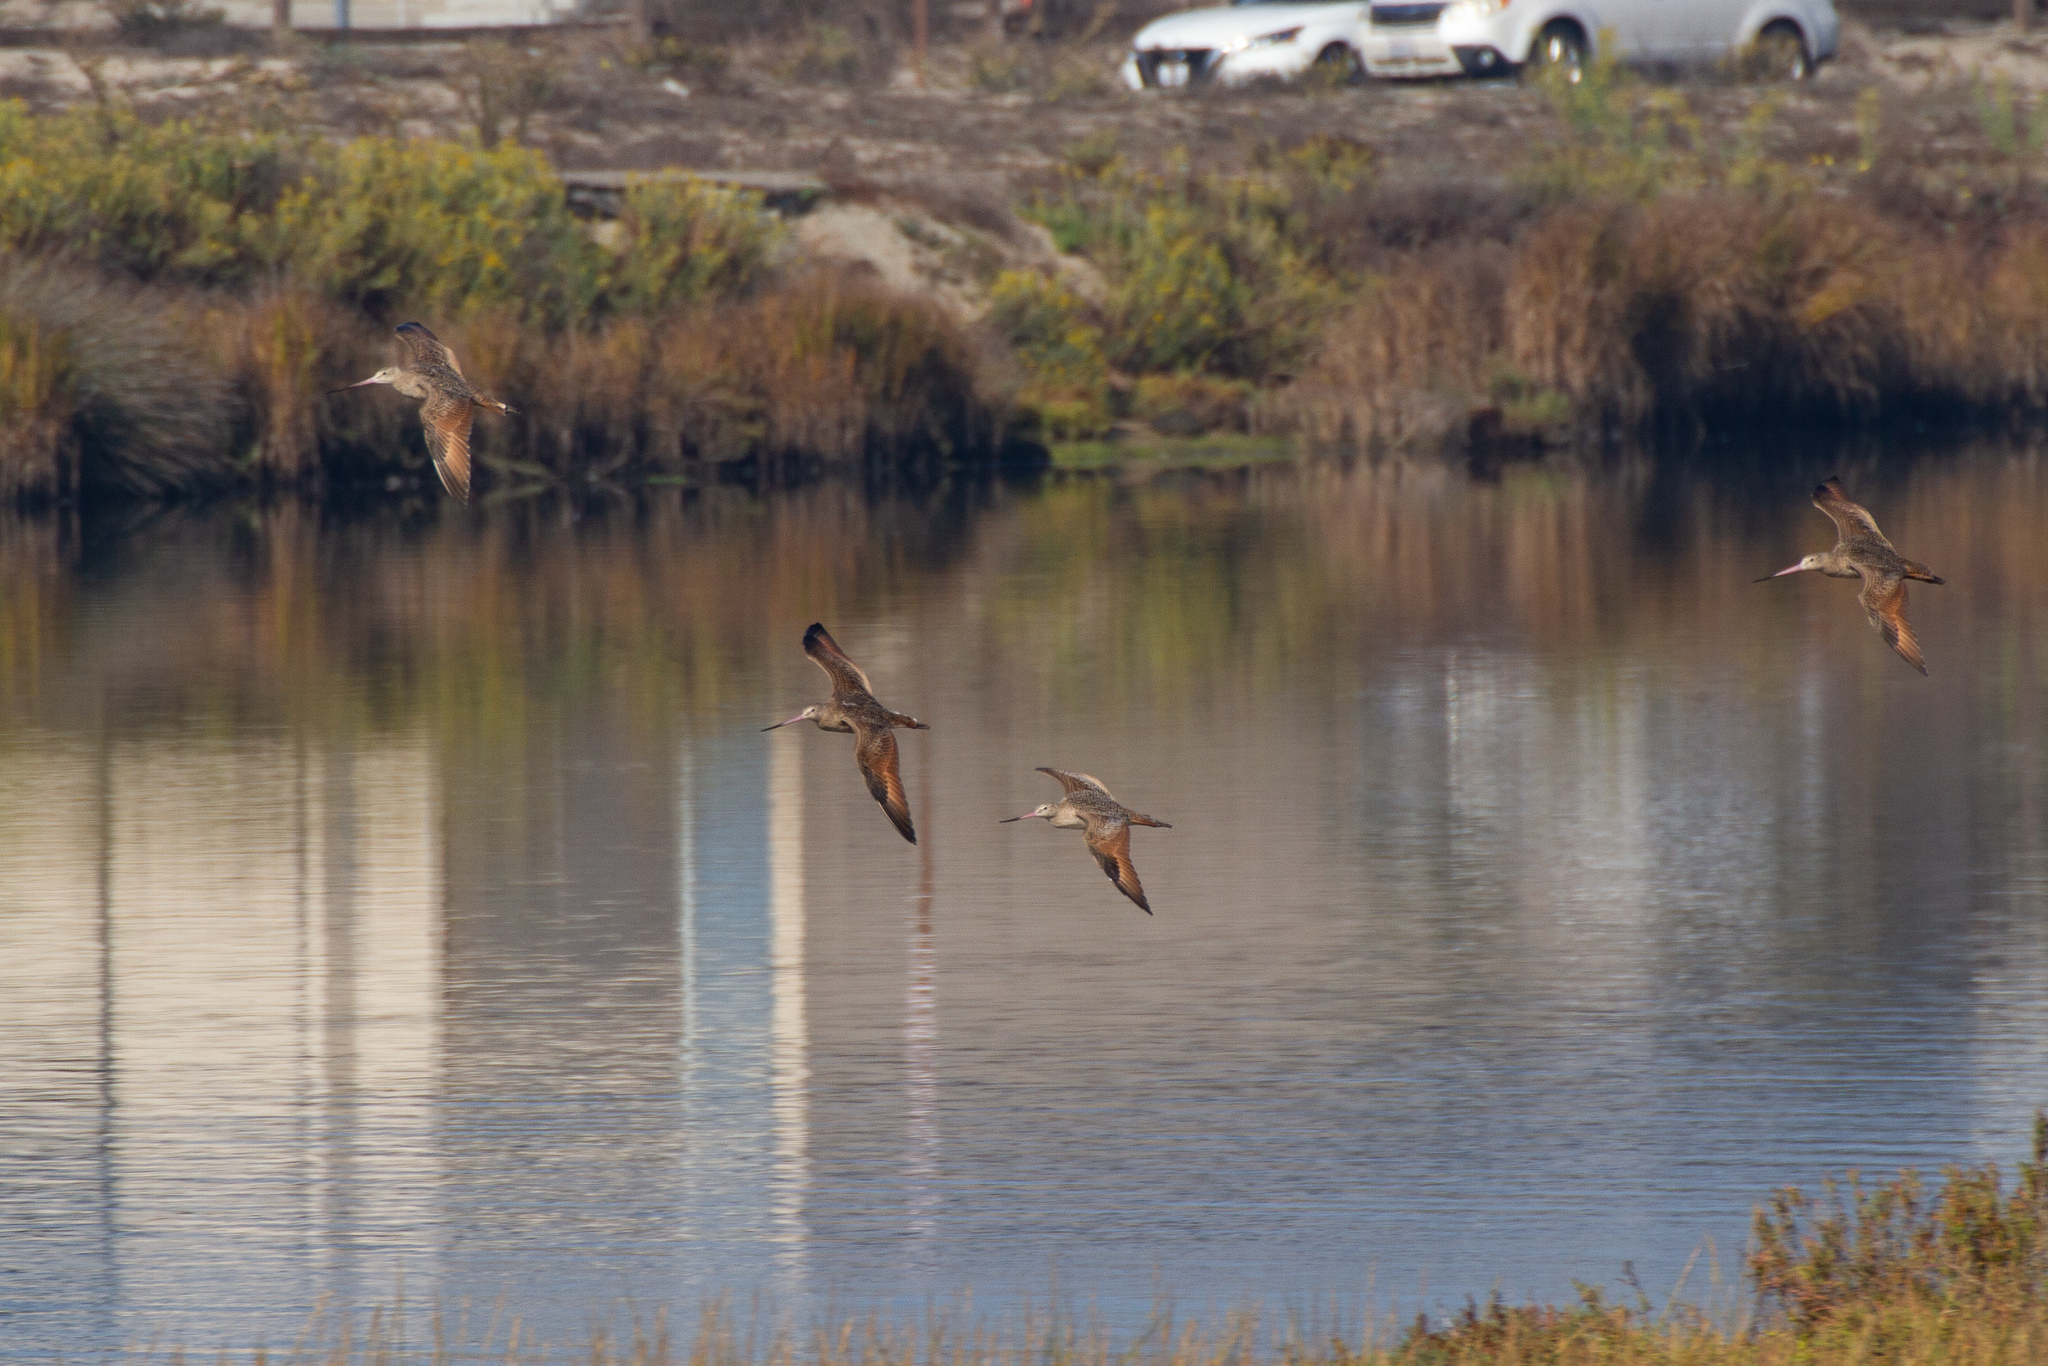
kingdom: Animalia
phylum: Chordata
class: Aves
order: Charadriiformes
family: Scolopacidae
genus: Limosa
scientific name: Limosa fedoa
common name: Marbled godwit
